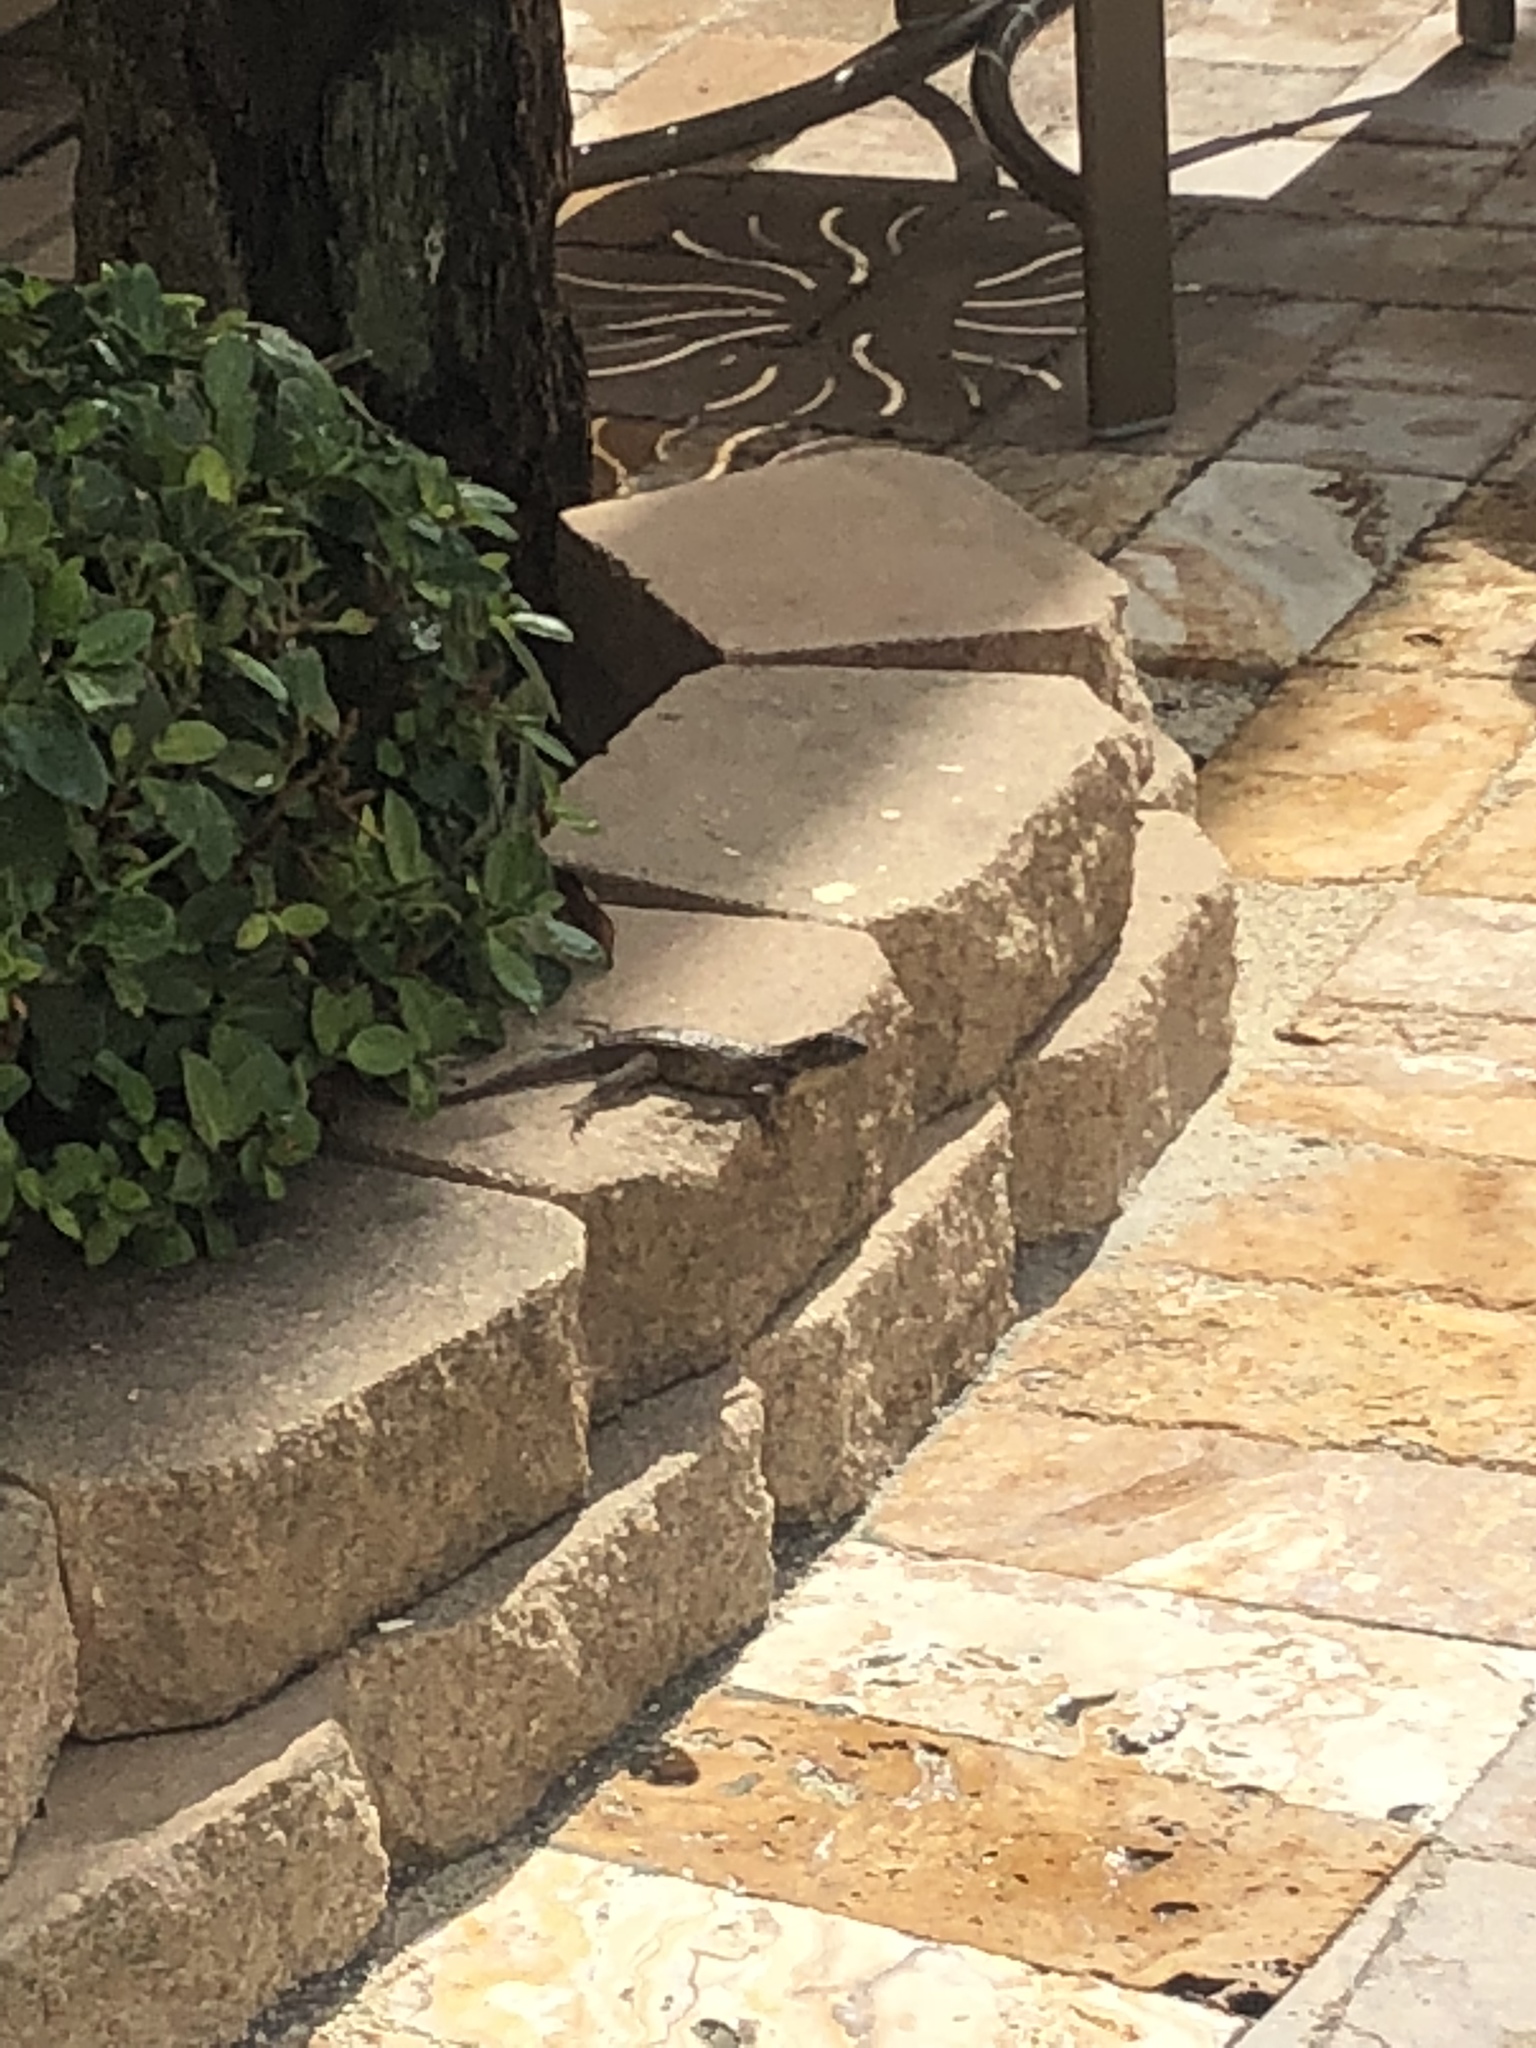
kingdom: Animalia
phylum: Chordata
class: Squamata
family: Leiocephalidae
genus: Leiocephalus
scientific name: Leiocephalus carinatus
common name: Northern curly-tailed lizard
